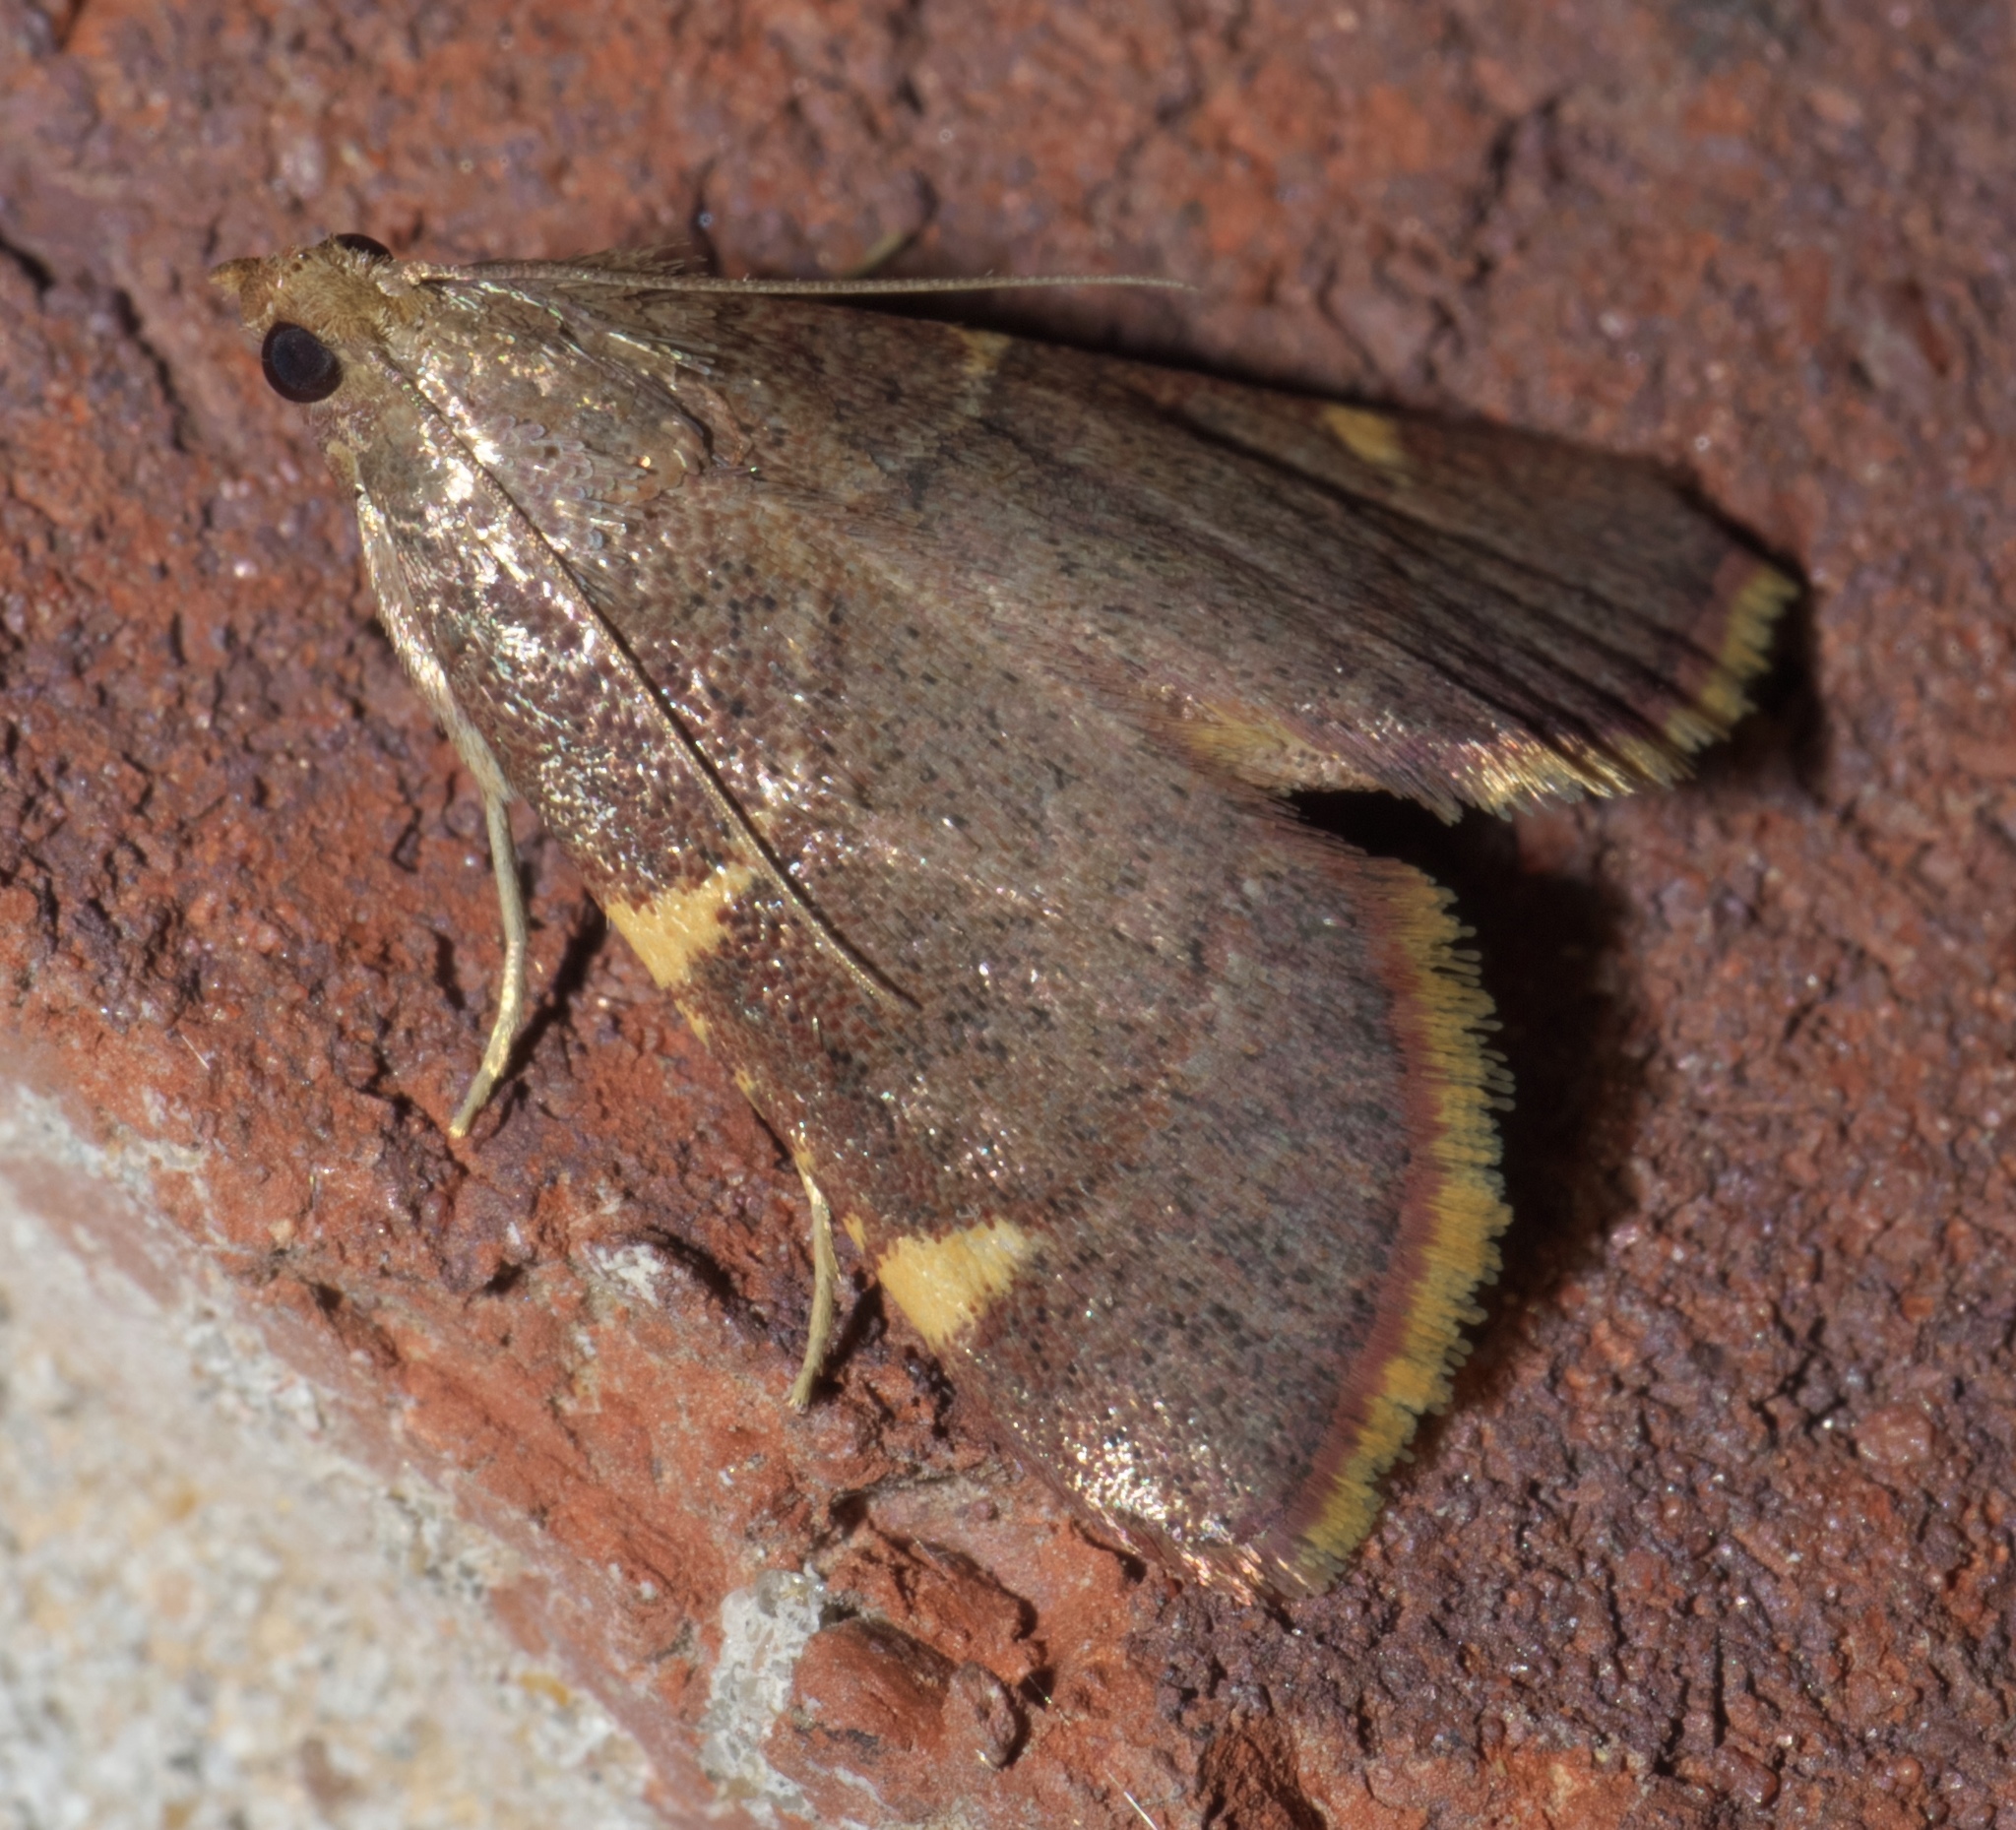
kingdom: Animalia
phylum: Arthropoda
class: Insecta
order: Lepidoptera
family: Pyralidae
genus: Hypsopygia
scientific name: Hypsopygia olinalis
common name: Yellow-fringed dolichomia moth
